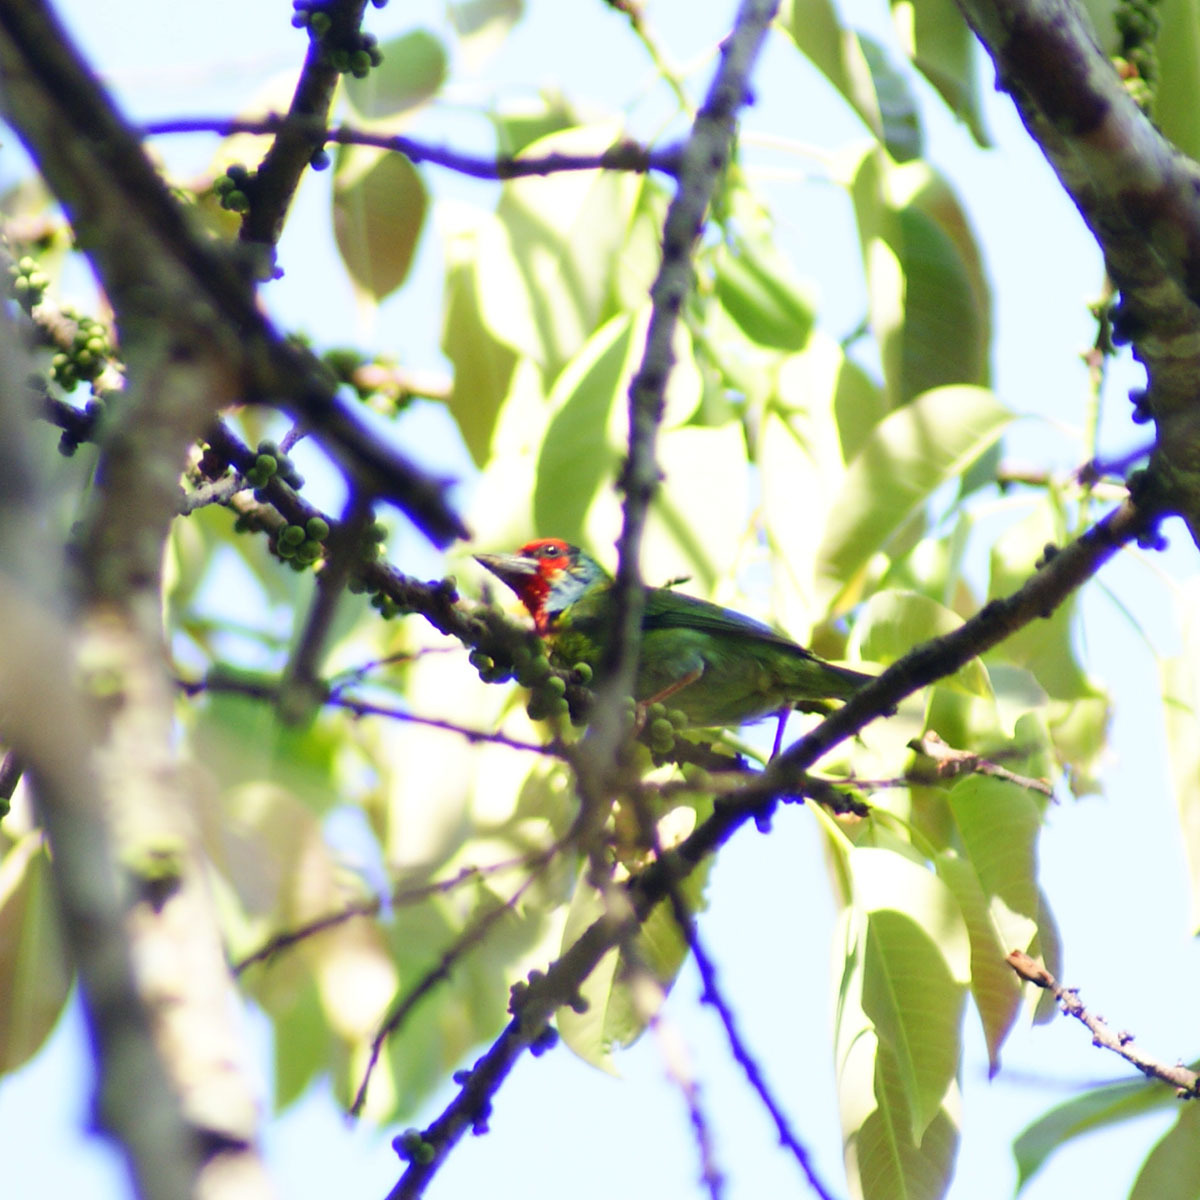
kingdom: Animalia
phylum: Chordata
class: Aves
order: Piciformes
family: Megalaimidae
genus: Psilopogon
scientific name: Psilopogon malabaricus
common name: Malabar barbet
